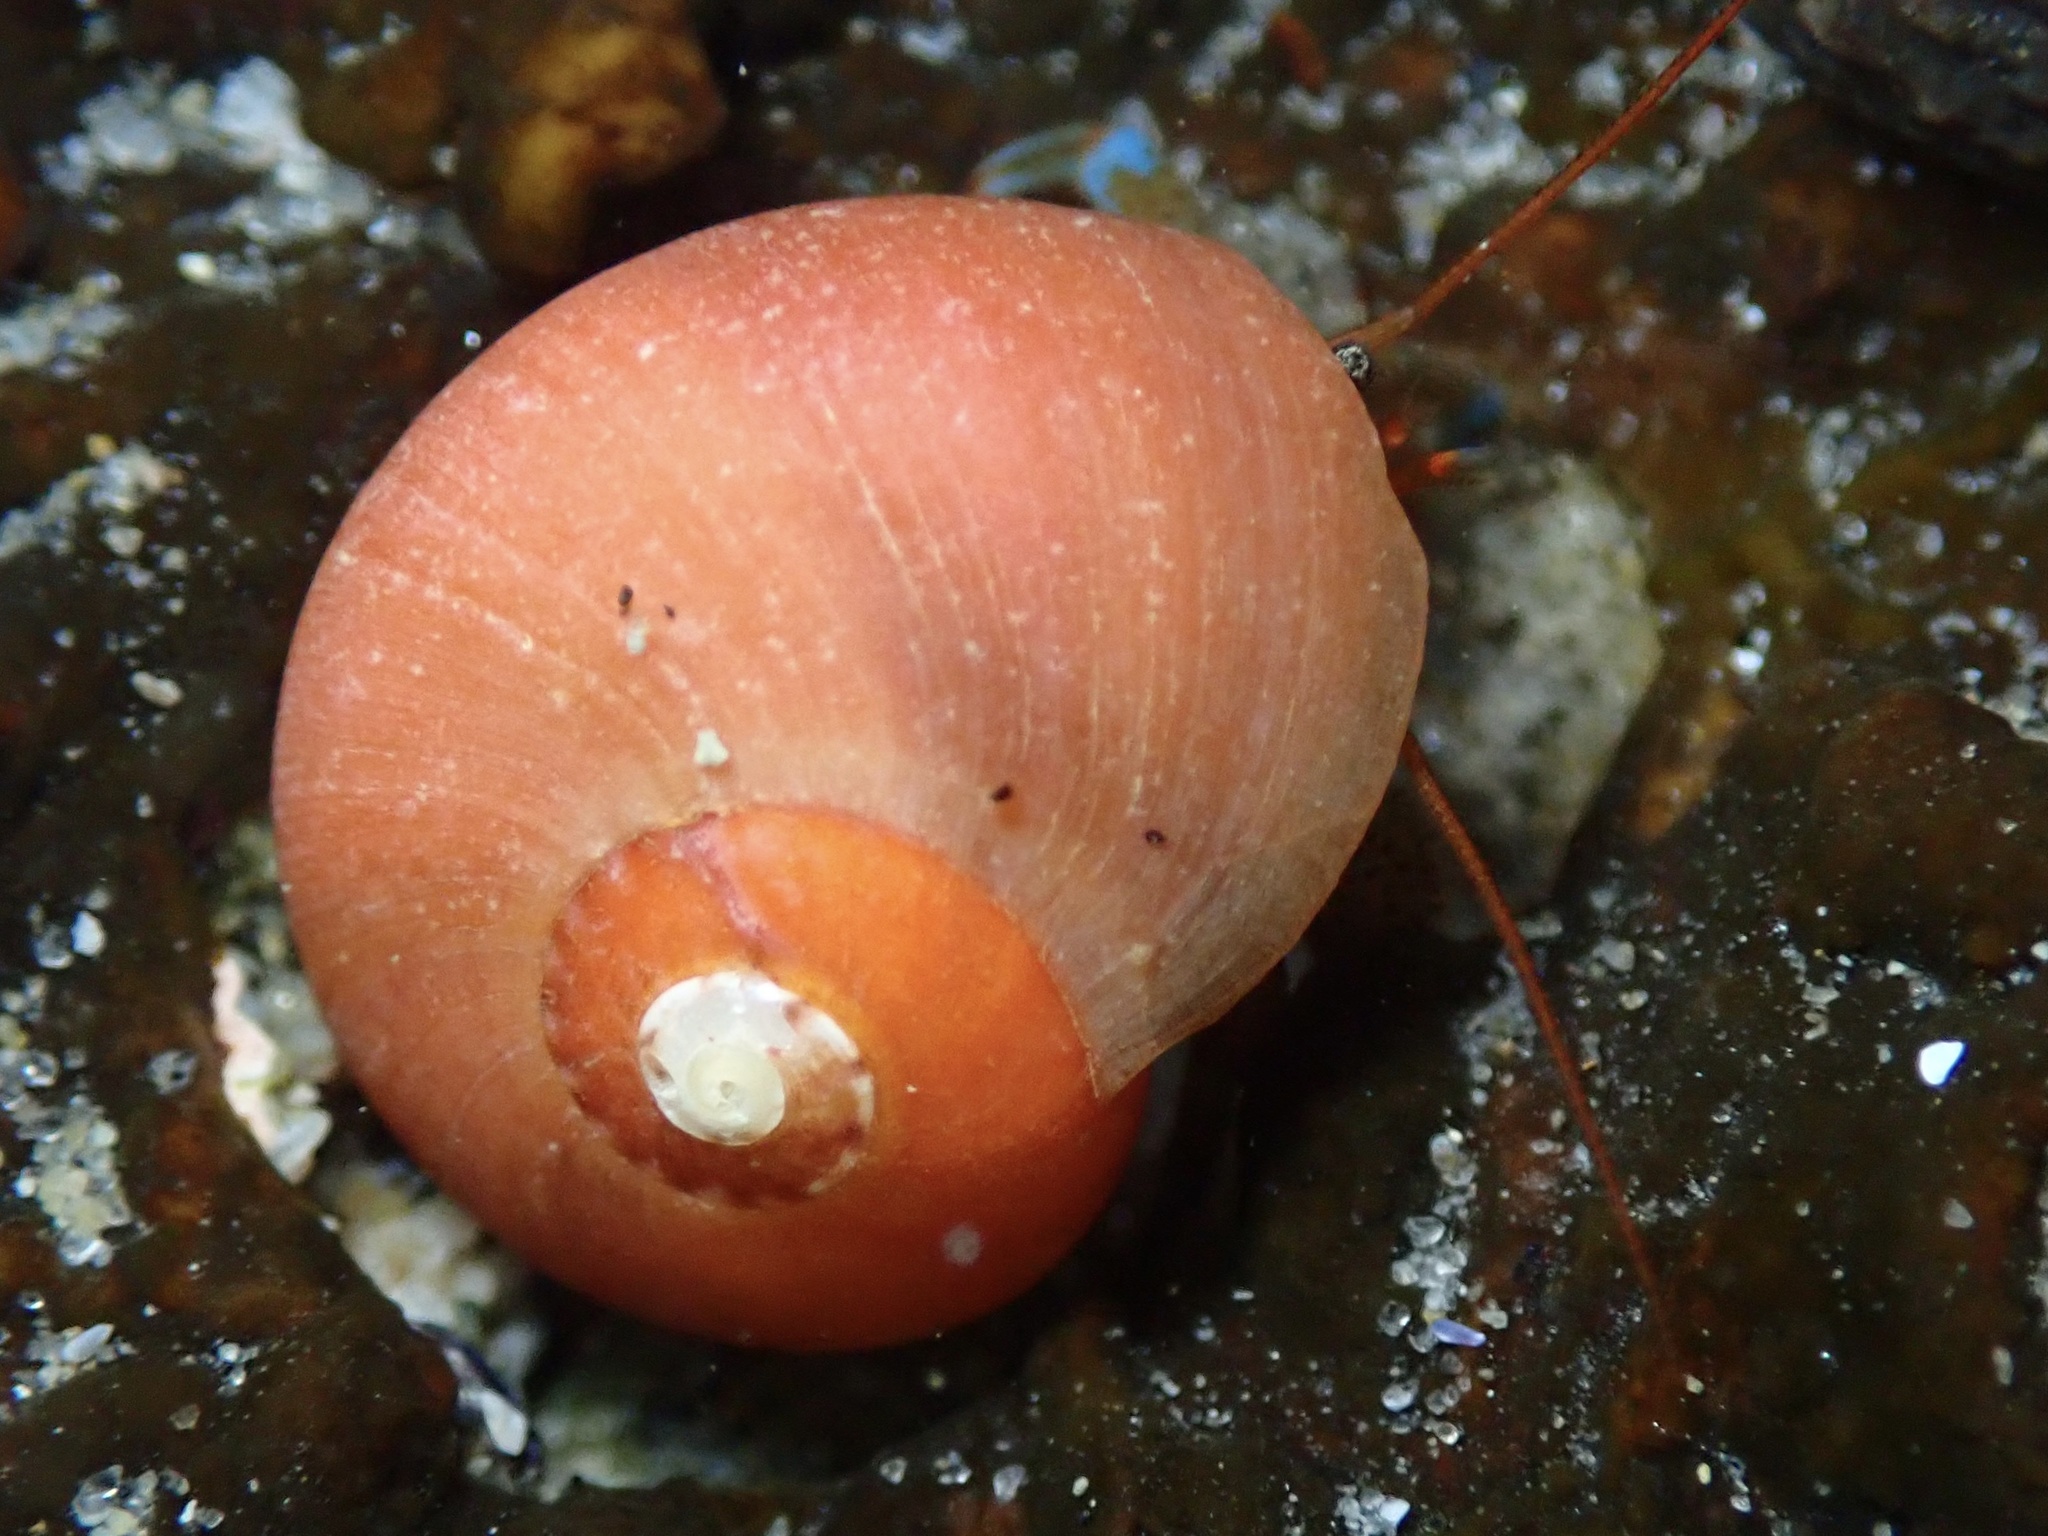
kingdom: Animalia
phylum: Mollusca
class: Gastropoda
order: Trochida
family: Tegulidae
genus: Norrisia
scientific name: Norrisia norrisii
